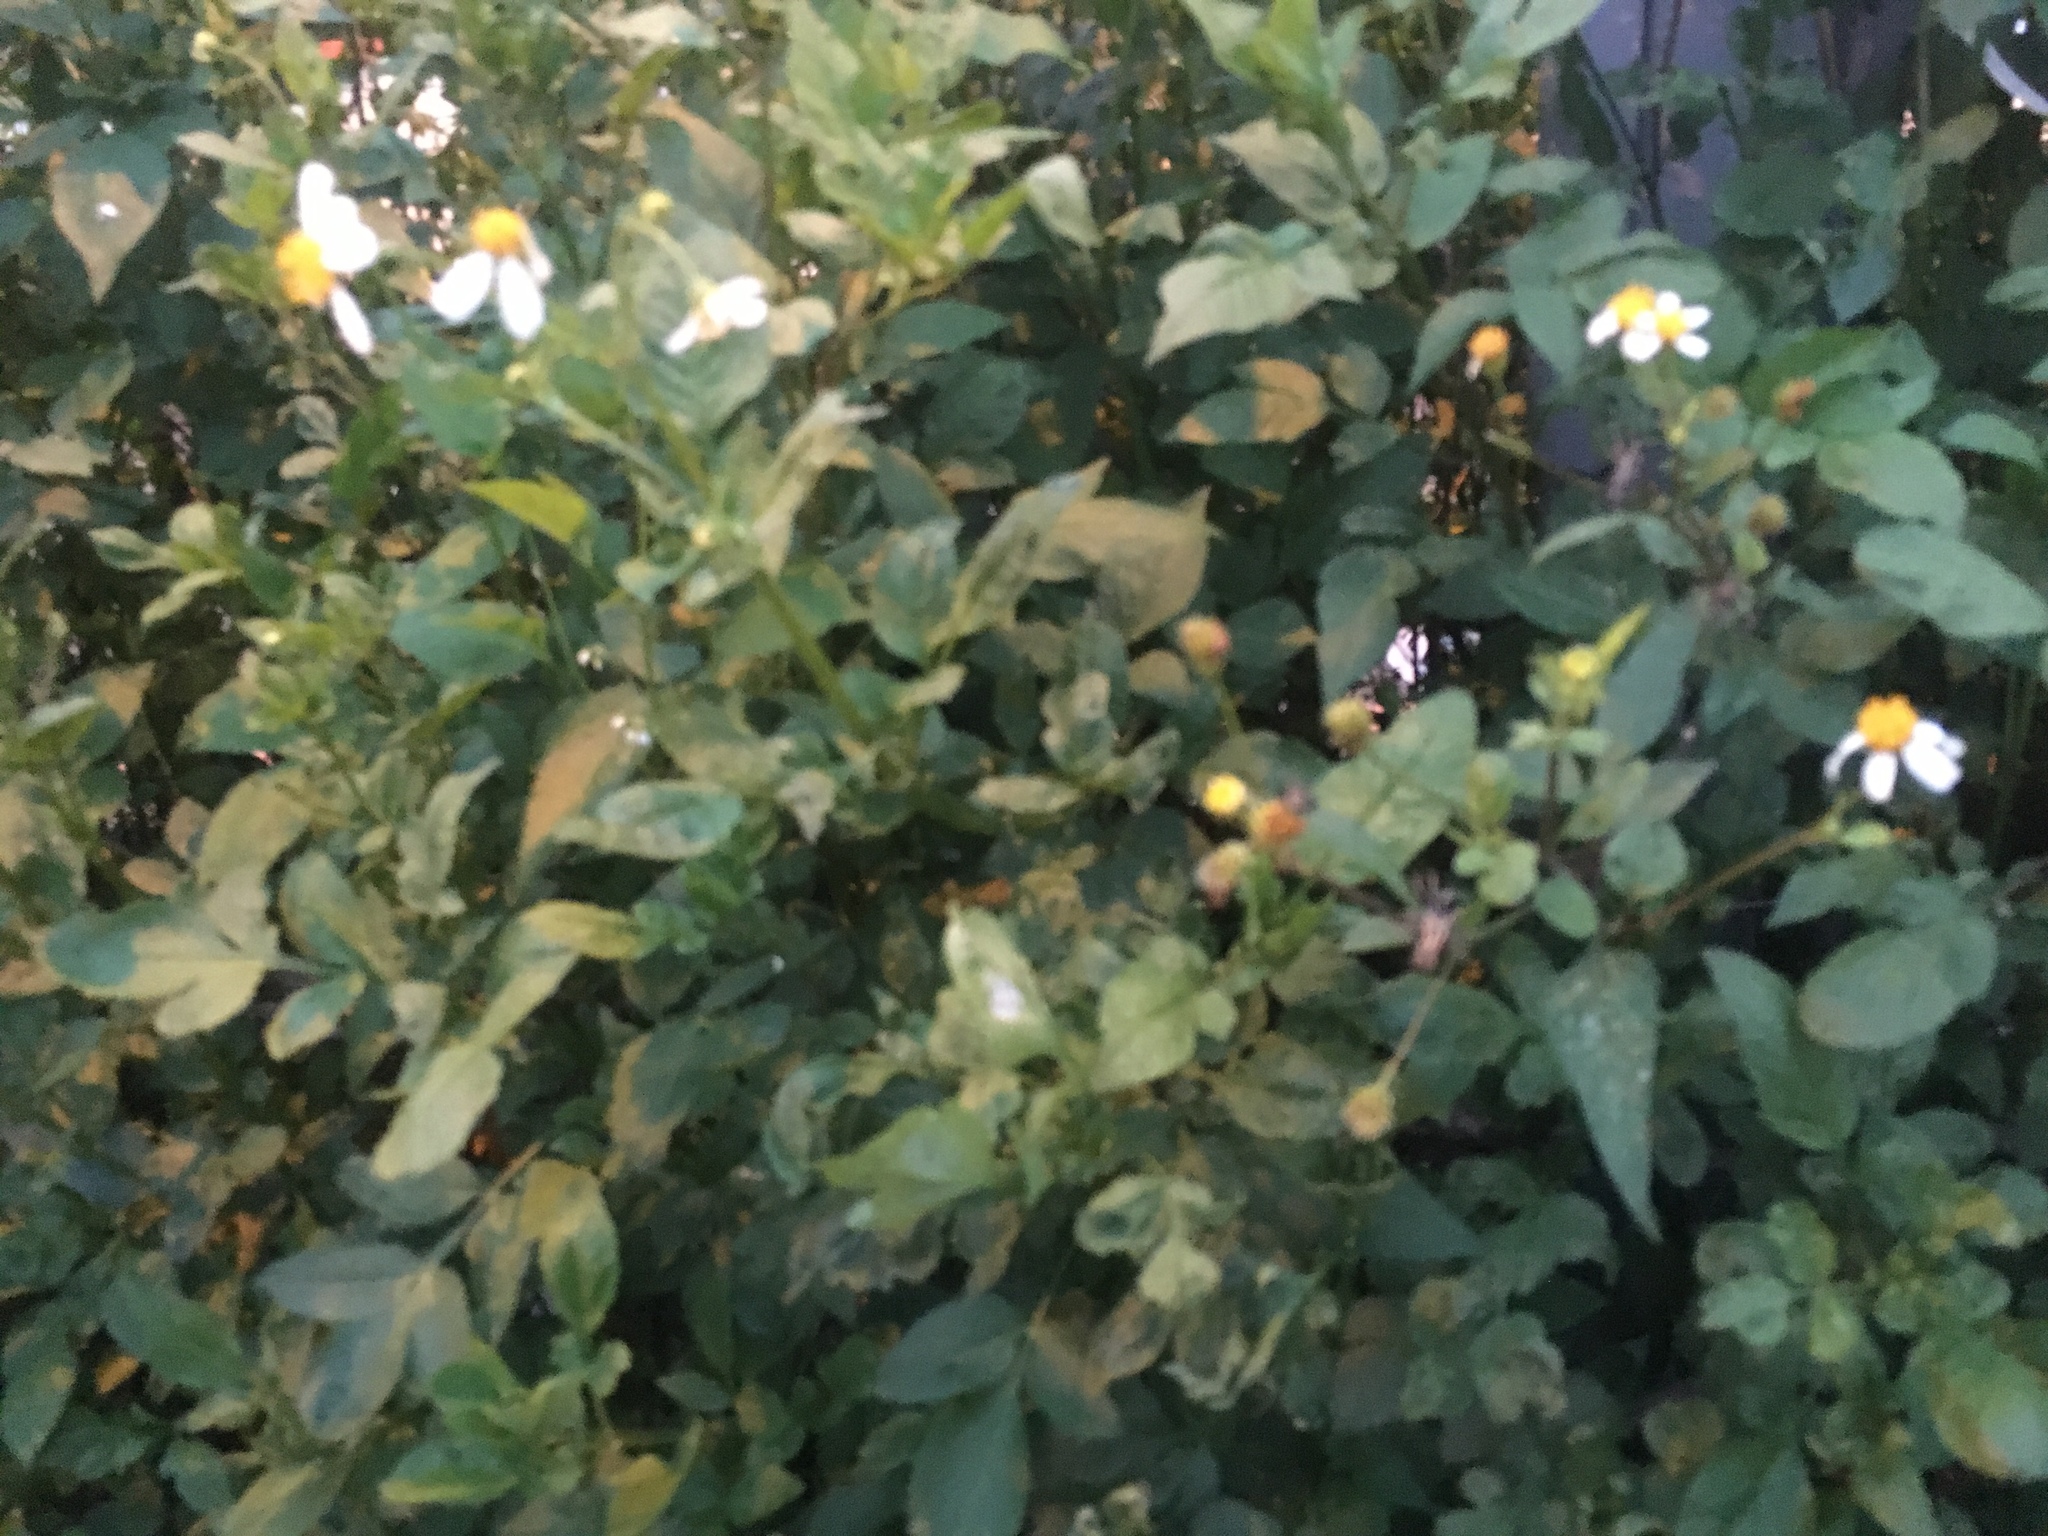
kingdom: Plantae
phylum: Tracheophyta
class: Magnoliopsida
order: Asterales
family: Asteraceae
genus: Bidens
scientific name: Bidens alba
